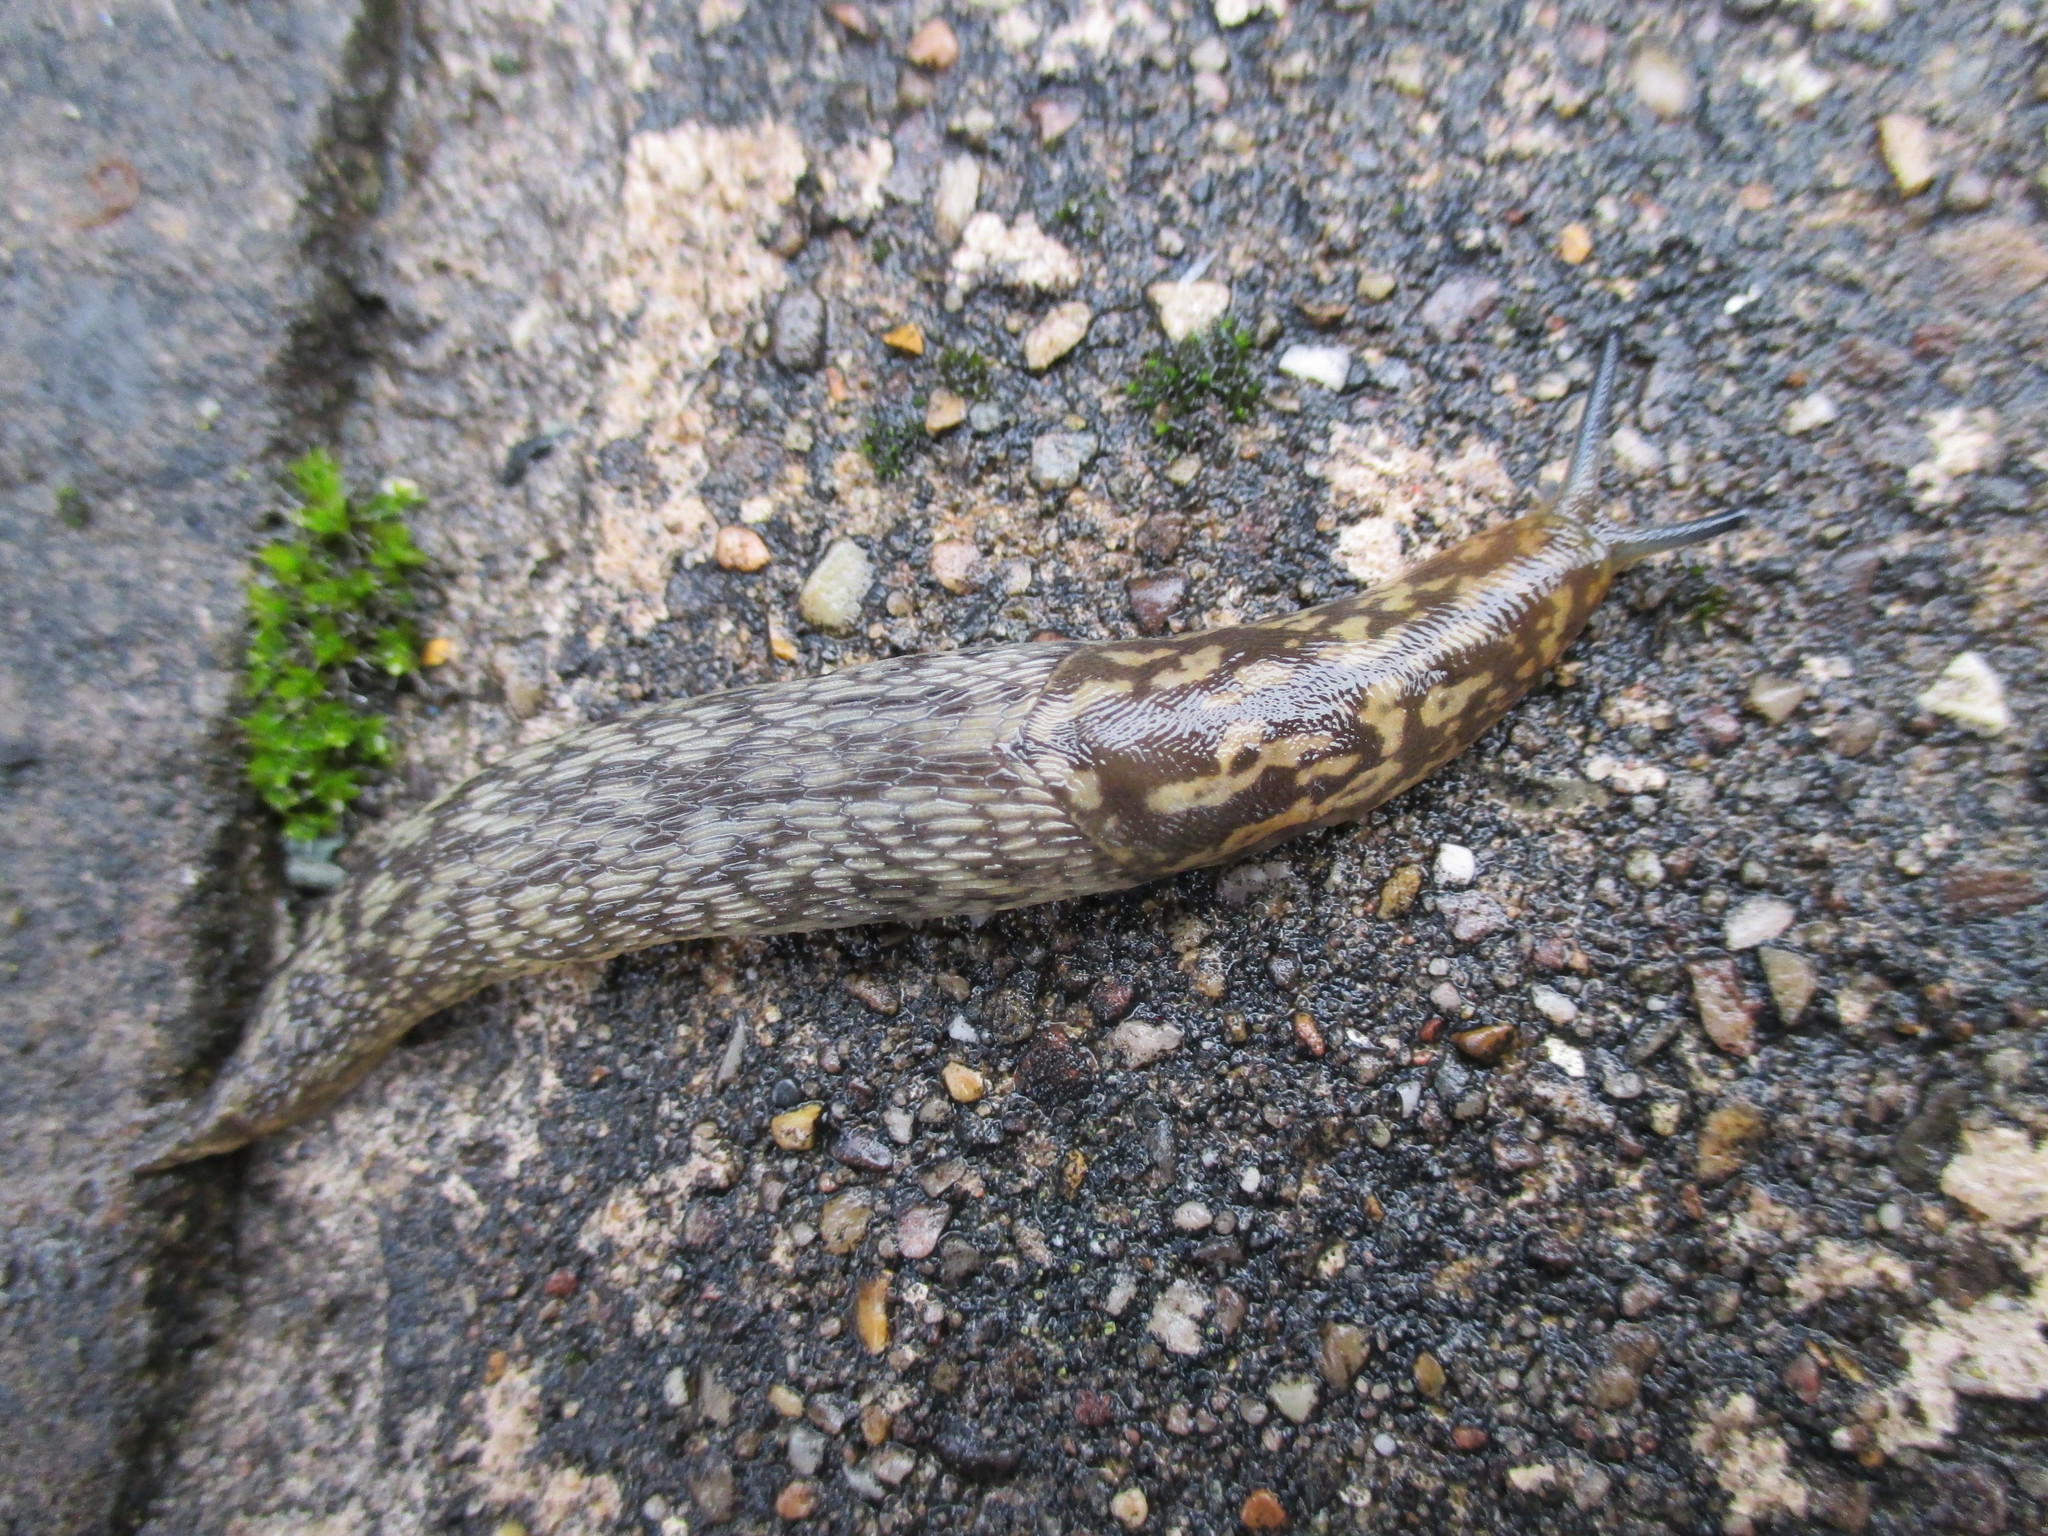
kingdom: Animalia
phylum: Mollusca
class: Gastropoda
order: Stylommatophora
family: Limacidae
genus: Limacus
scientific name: Limacus maculatus
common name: Irish yellow slug
